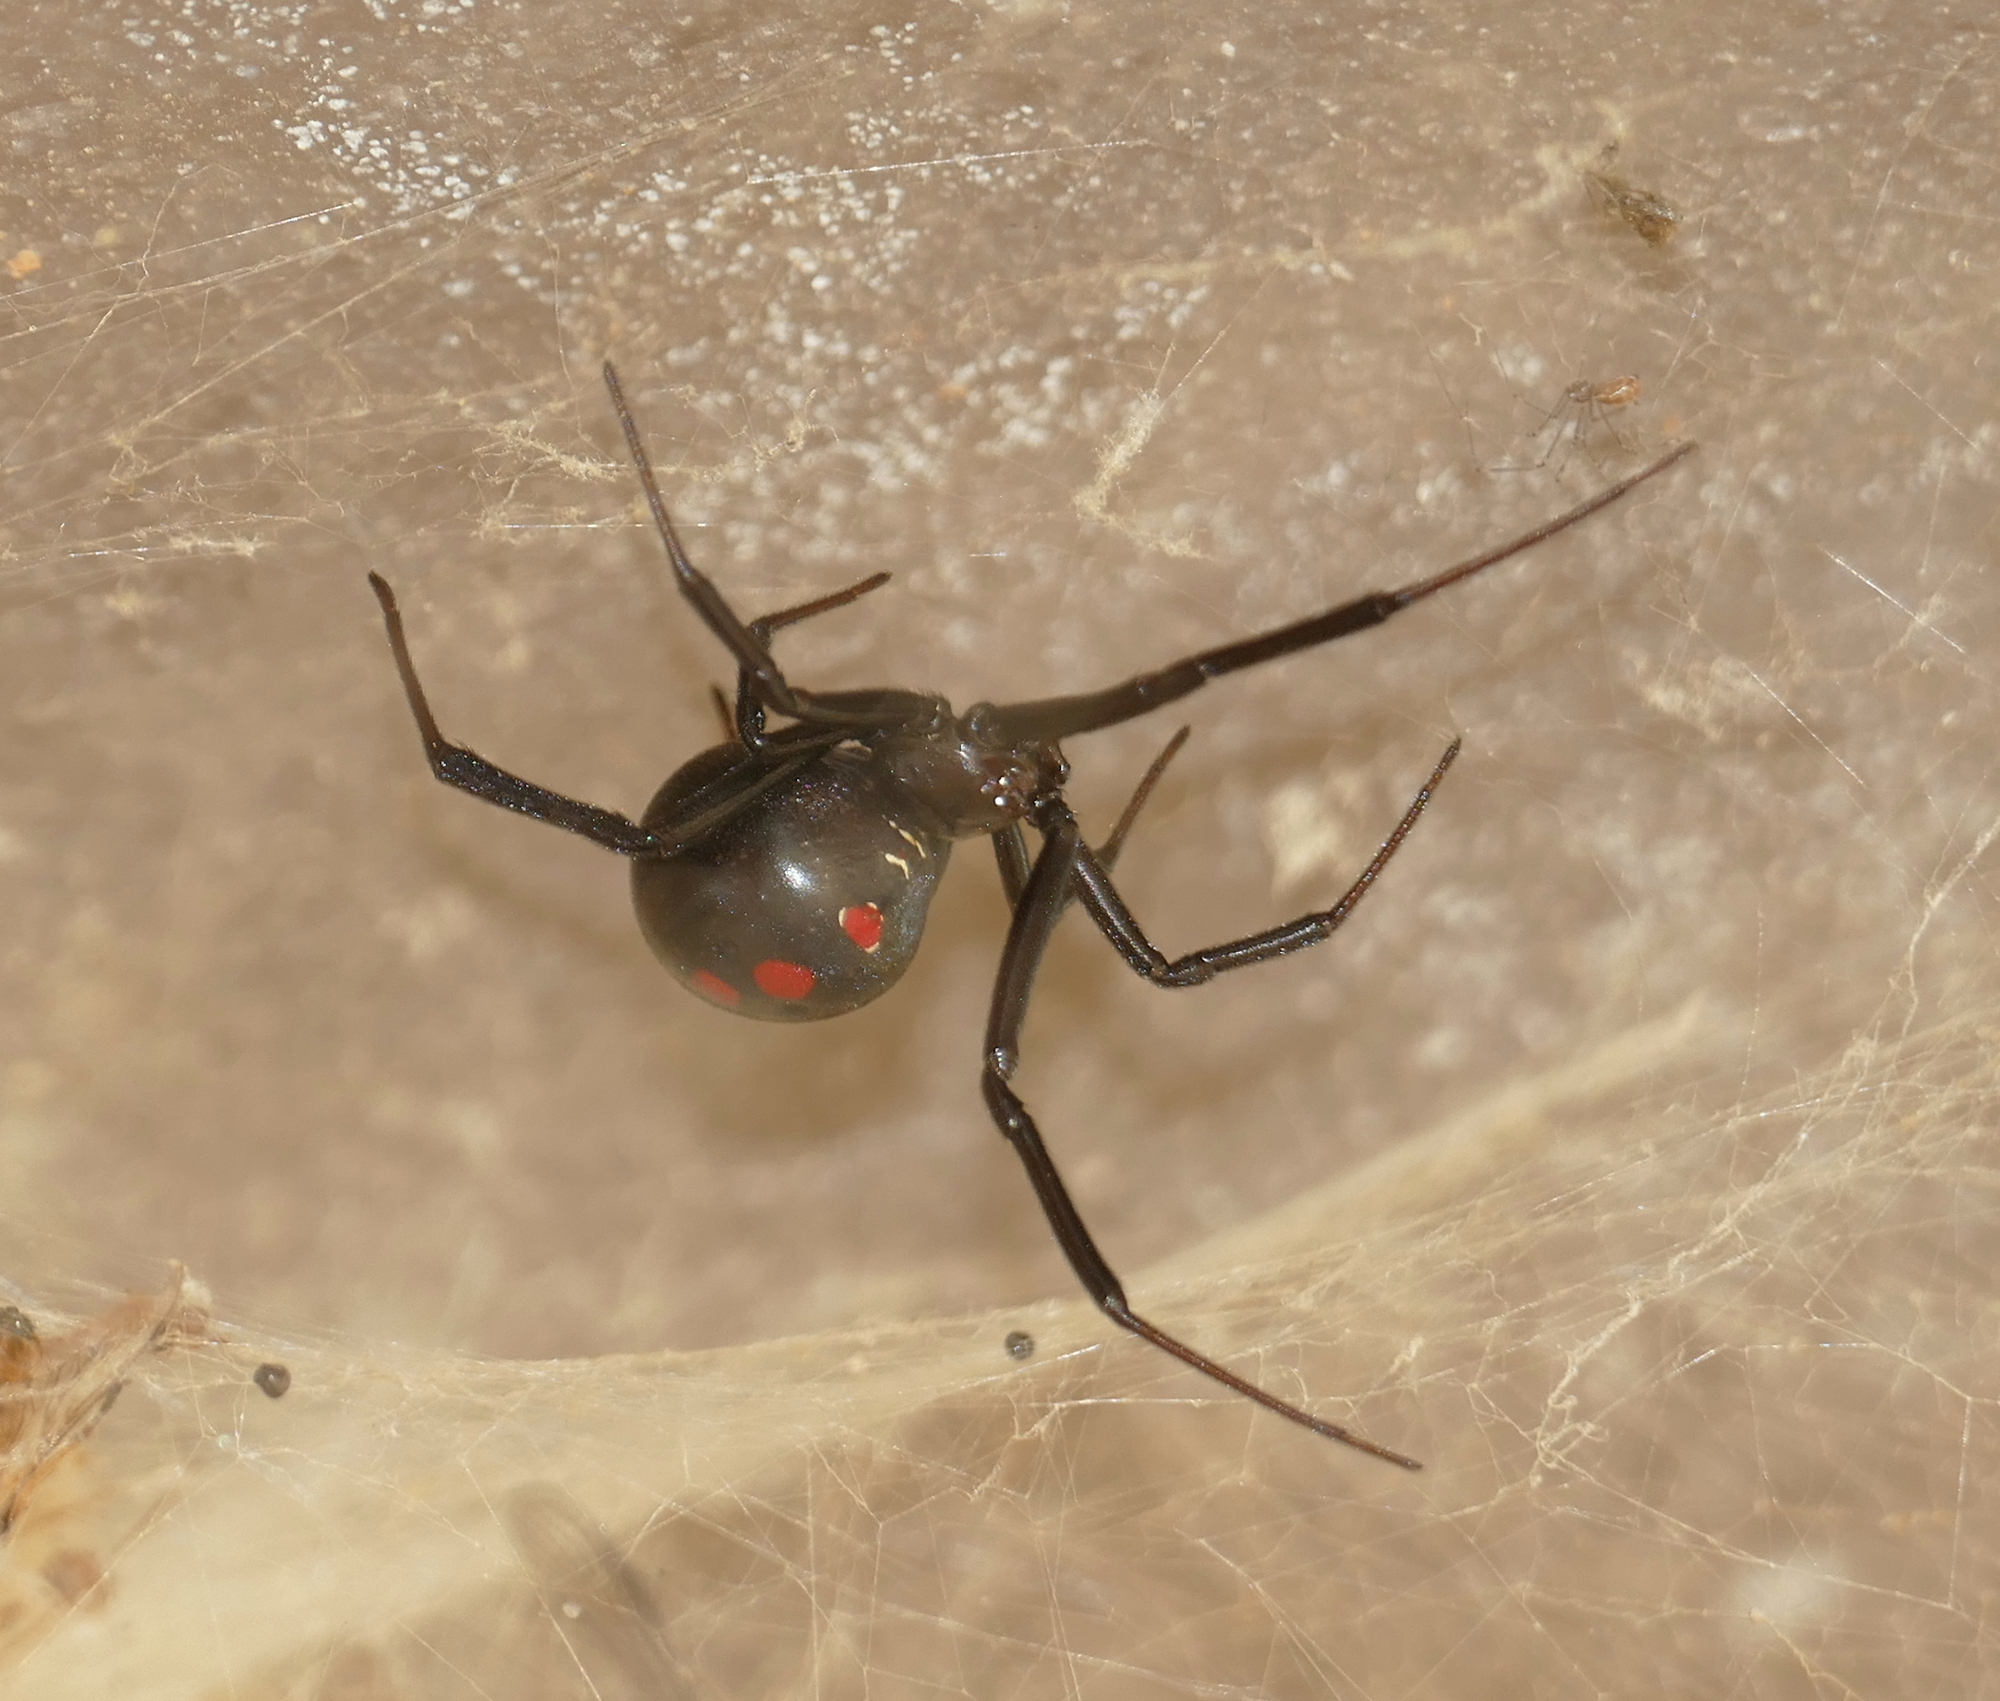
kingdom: Animalia
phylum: Arthropoda
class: Arachnida
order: Araneae
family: Theridiidae
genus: Latrodectus
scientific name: Latrodectus mactans
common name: Cobweb spiders
